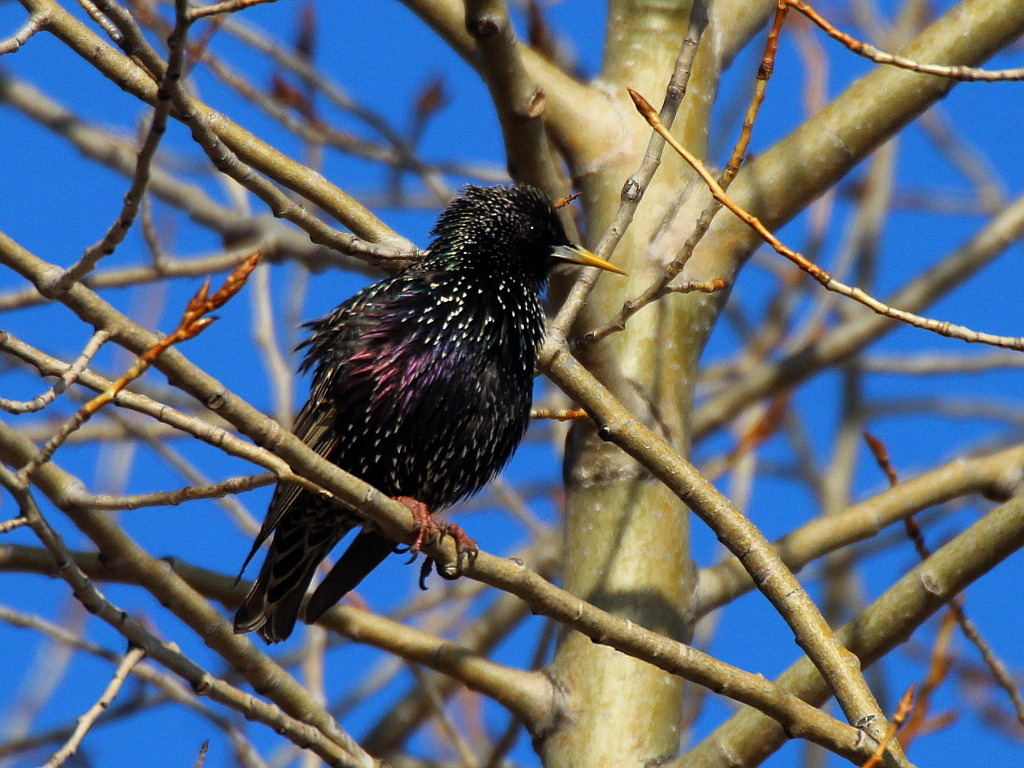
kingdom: Animalia
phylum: Chordata
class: Aves
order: Passeriformes
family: Sturnidae
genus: Sturnus
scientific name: Sturnus vulgaris
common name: Common starling
